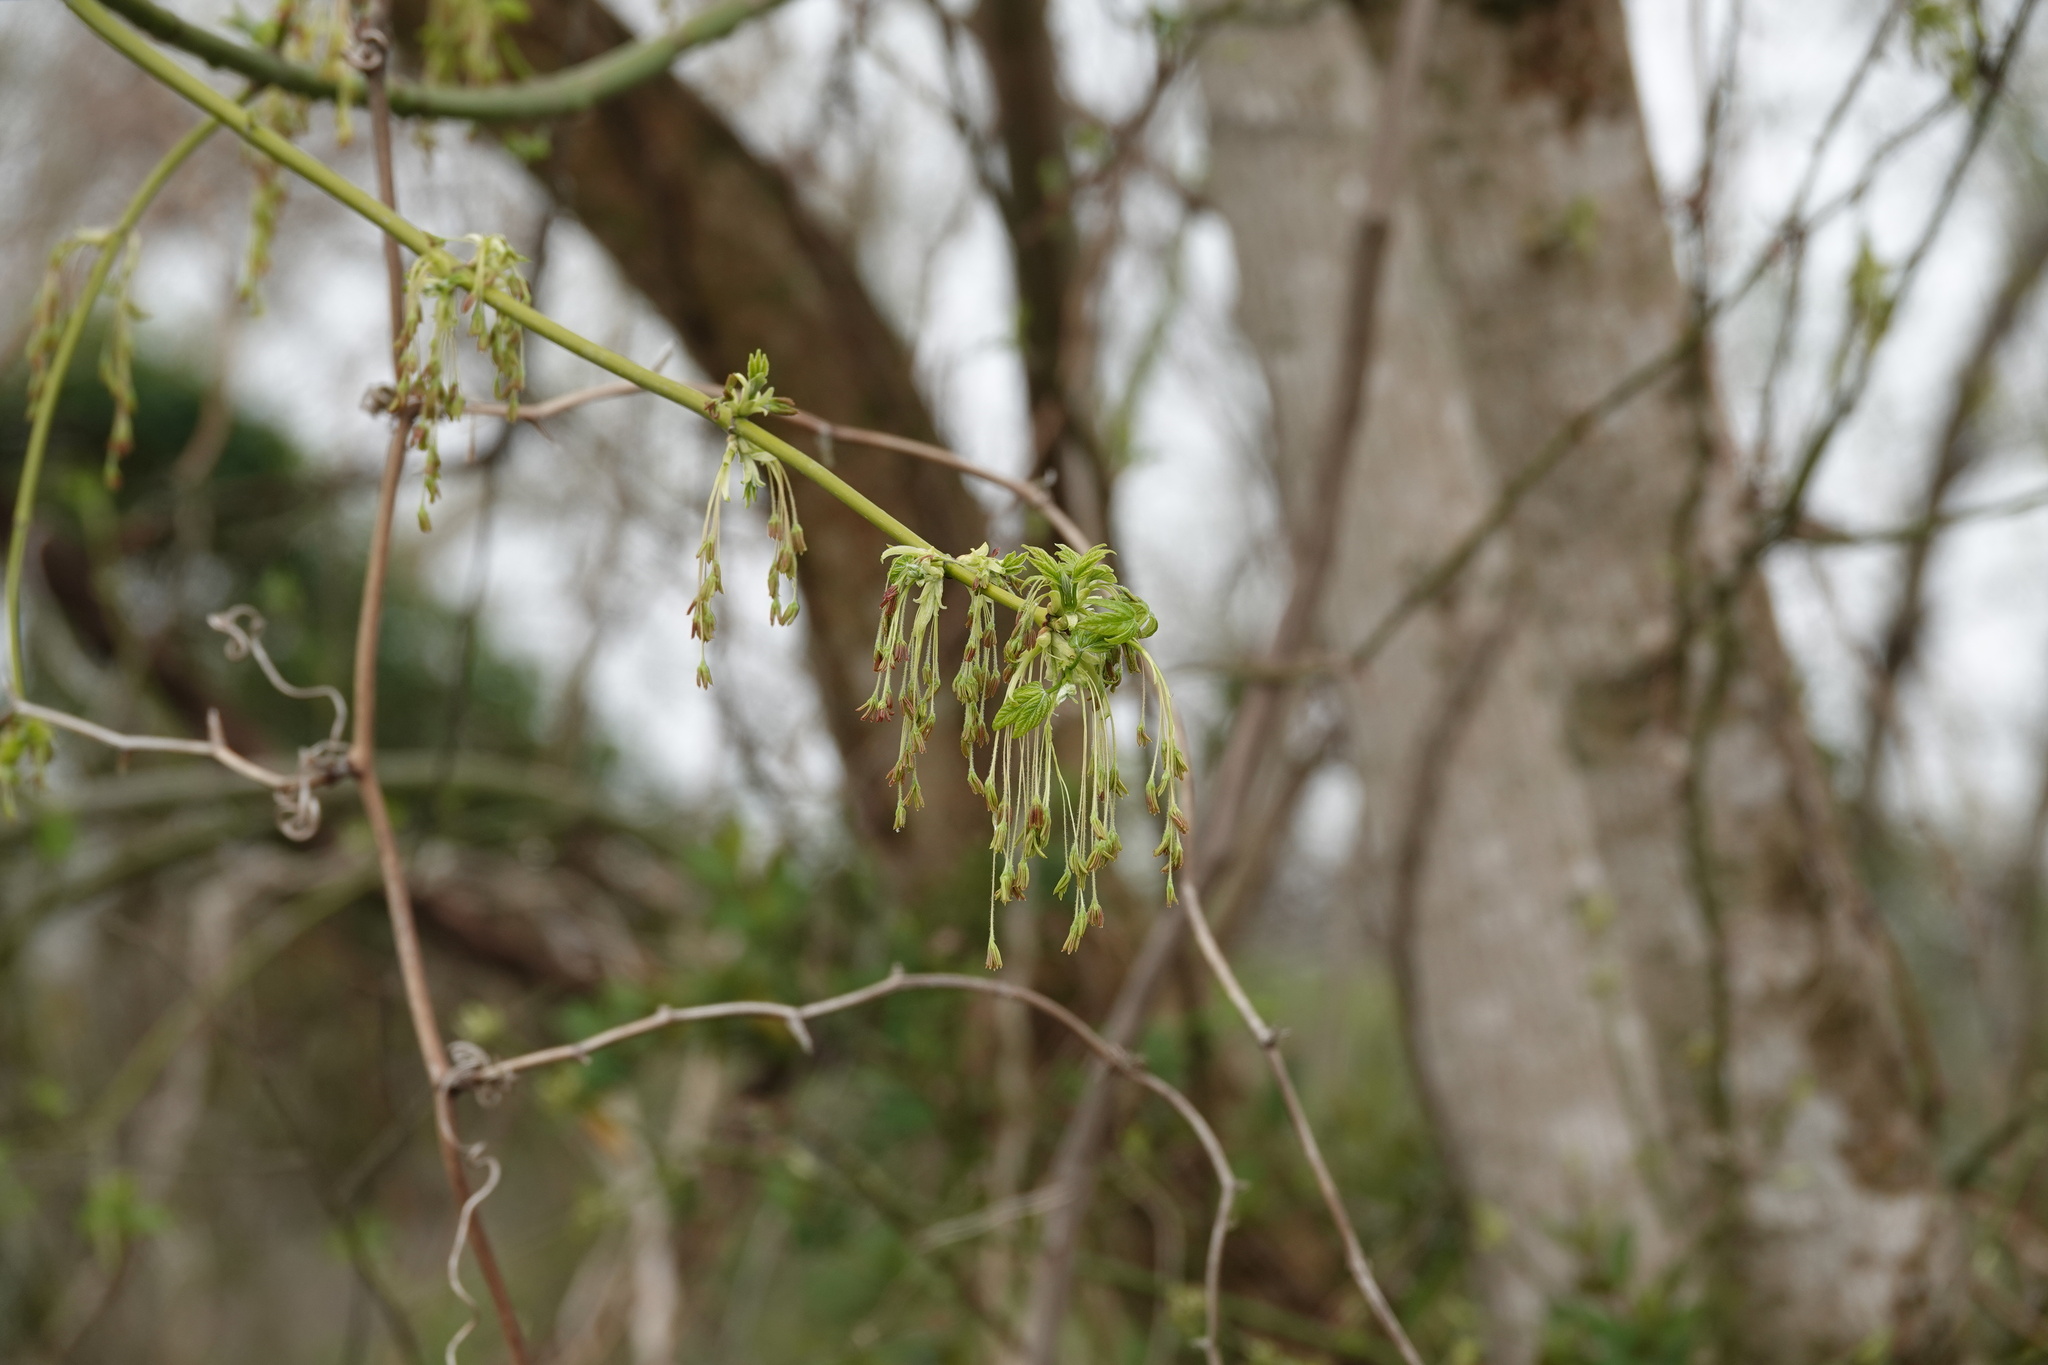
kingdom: Plantae
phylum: Tracheophyta
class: Magnoliopsida
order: Sapindales
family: Sapindaceae
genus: Acer
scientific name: Acer negundo
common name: Ashleaf maple
